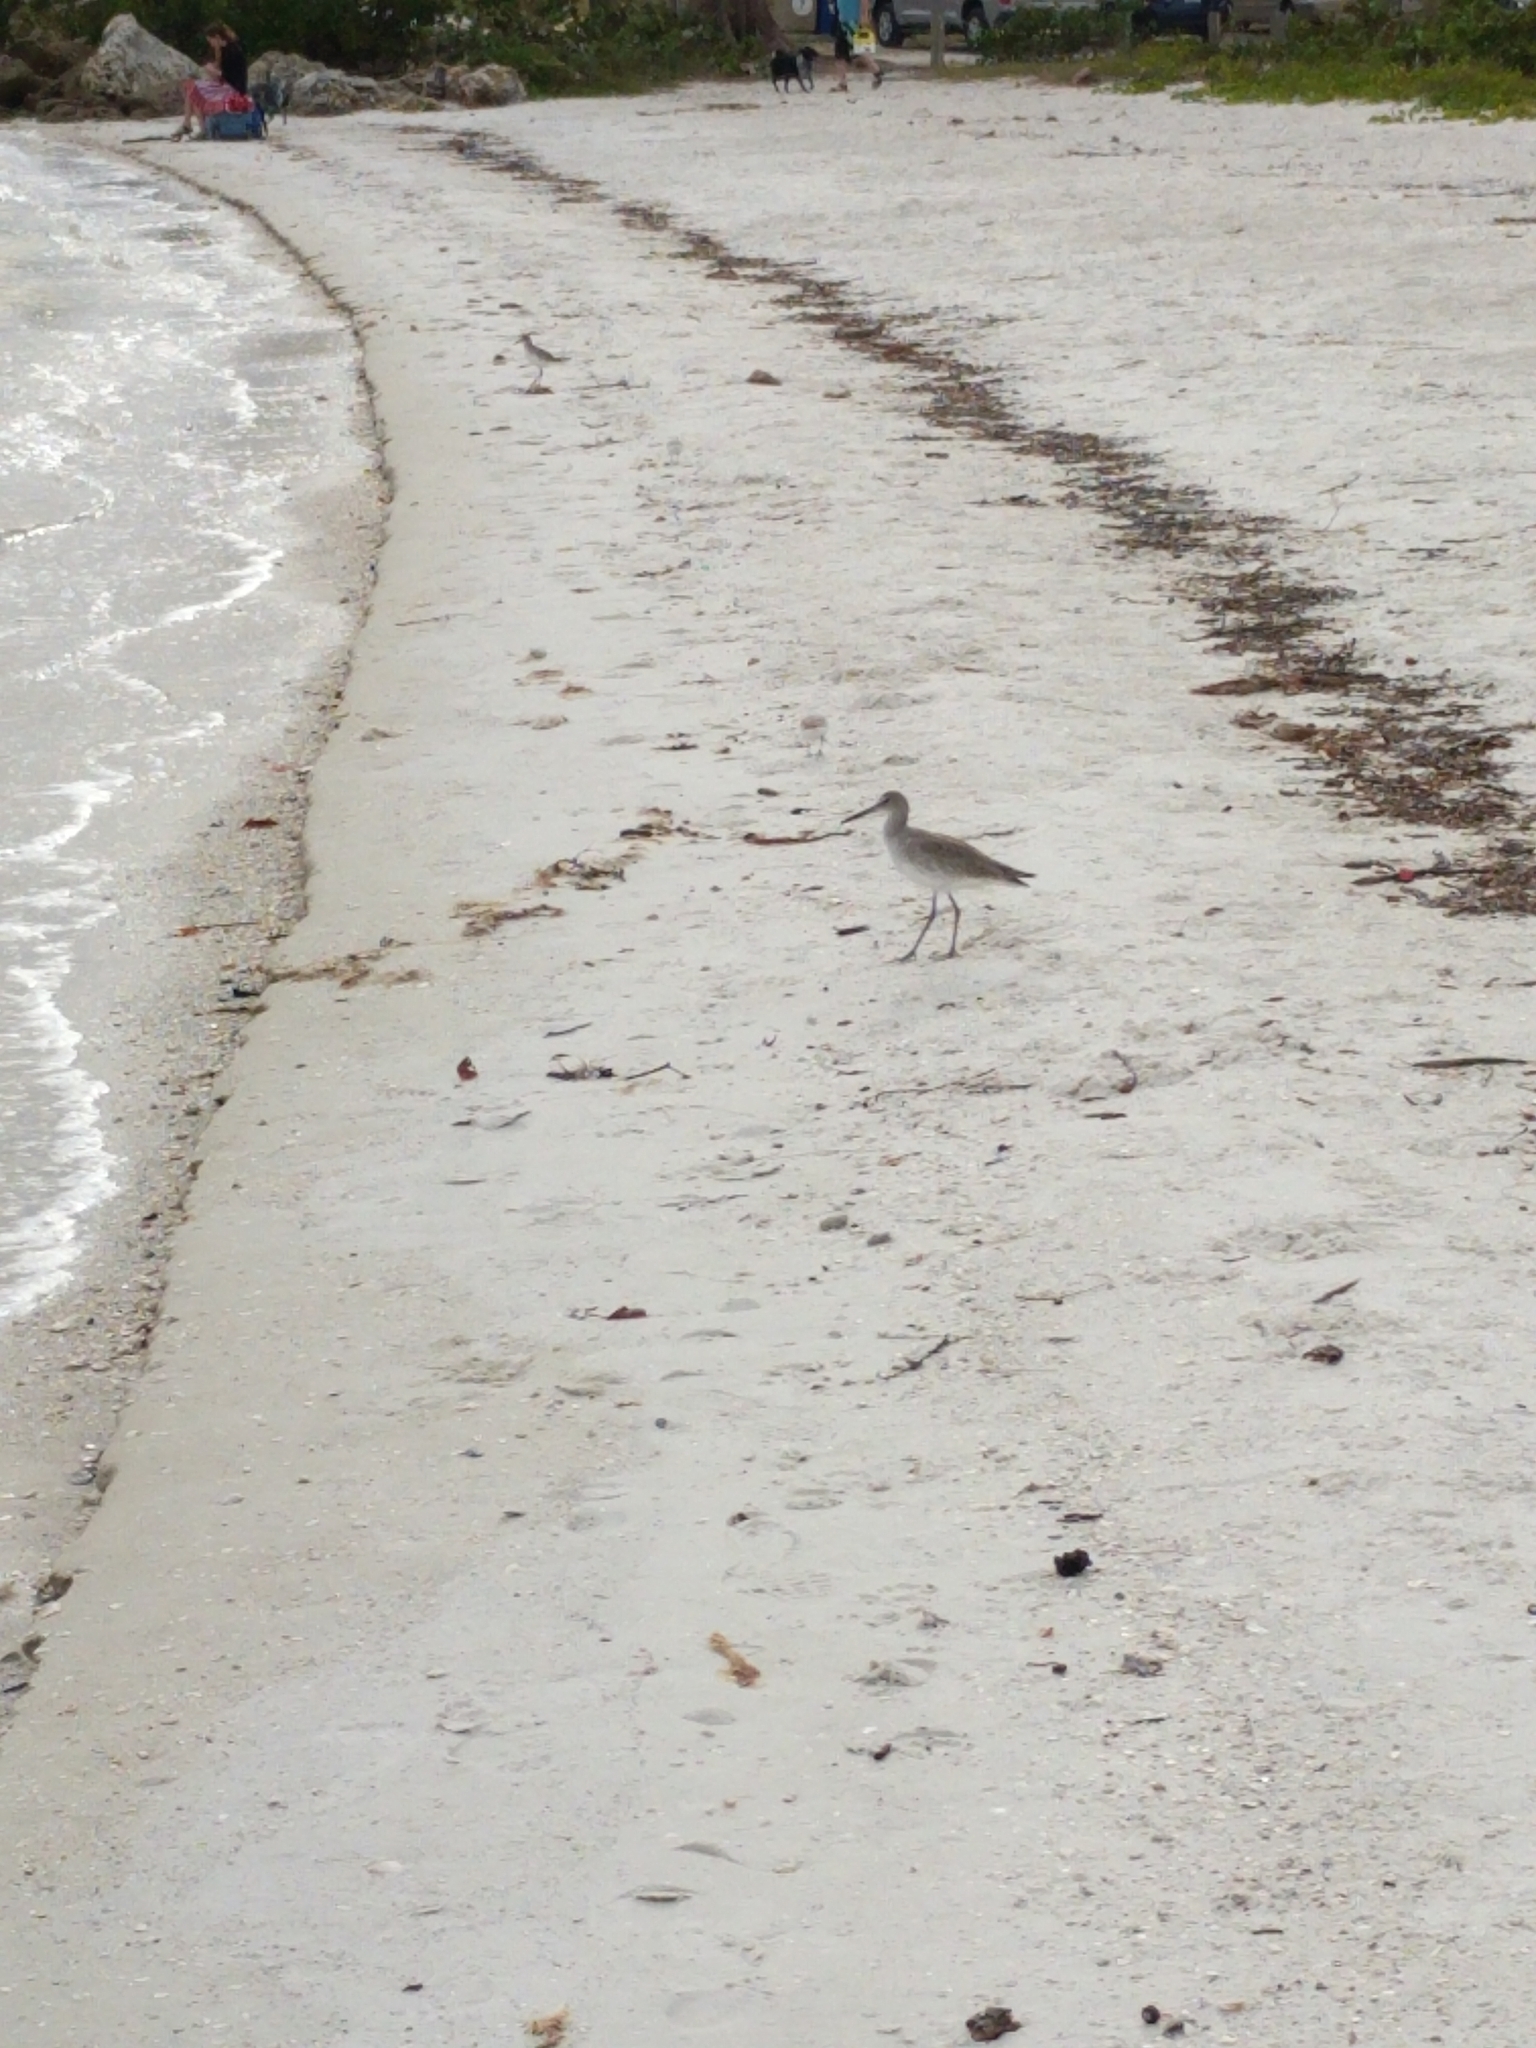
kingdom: Animalia
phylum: Chordata
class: Aves
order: Charadriiformes
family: Scolopacidae
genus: Tringa
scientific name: Tringa semipalmata
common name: Willet
